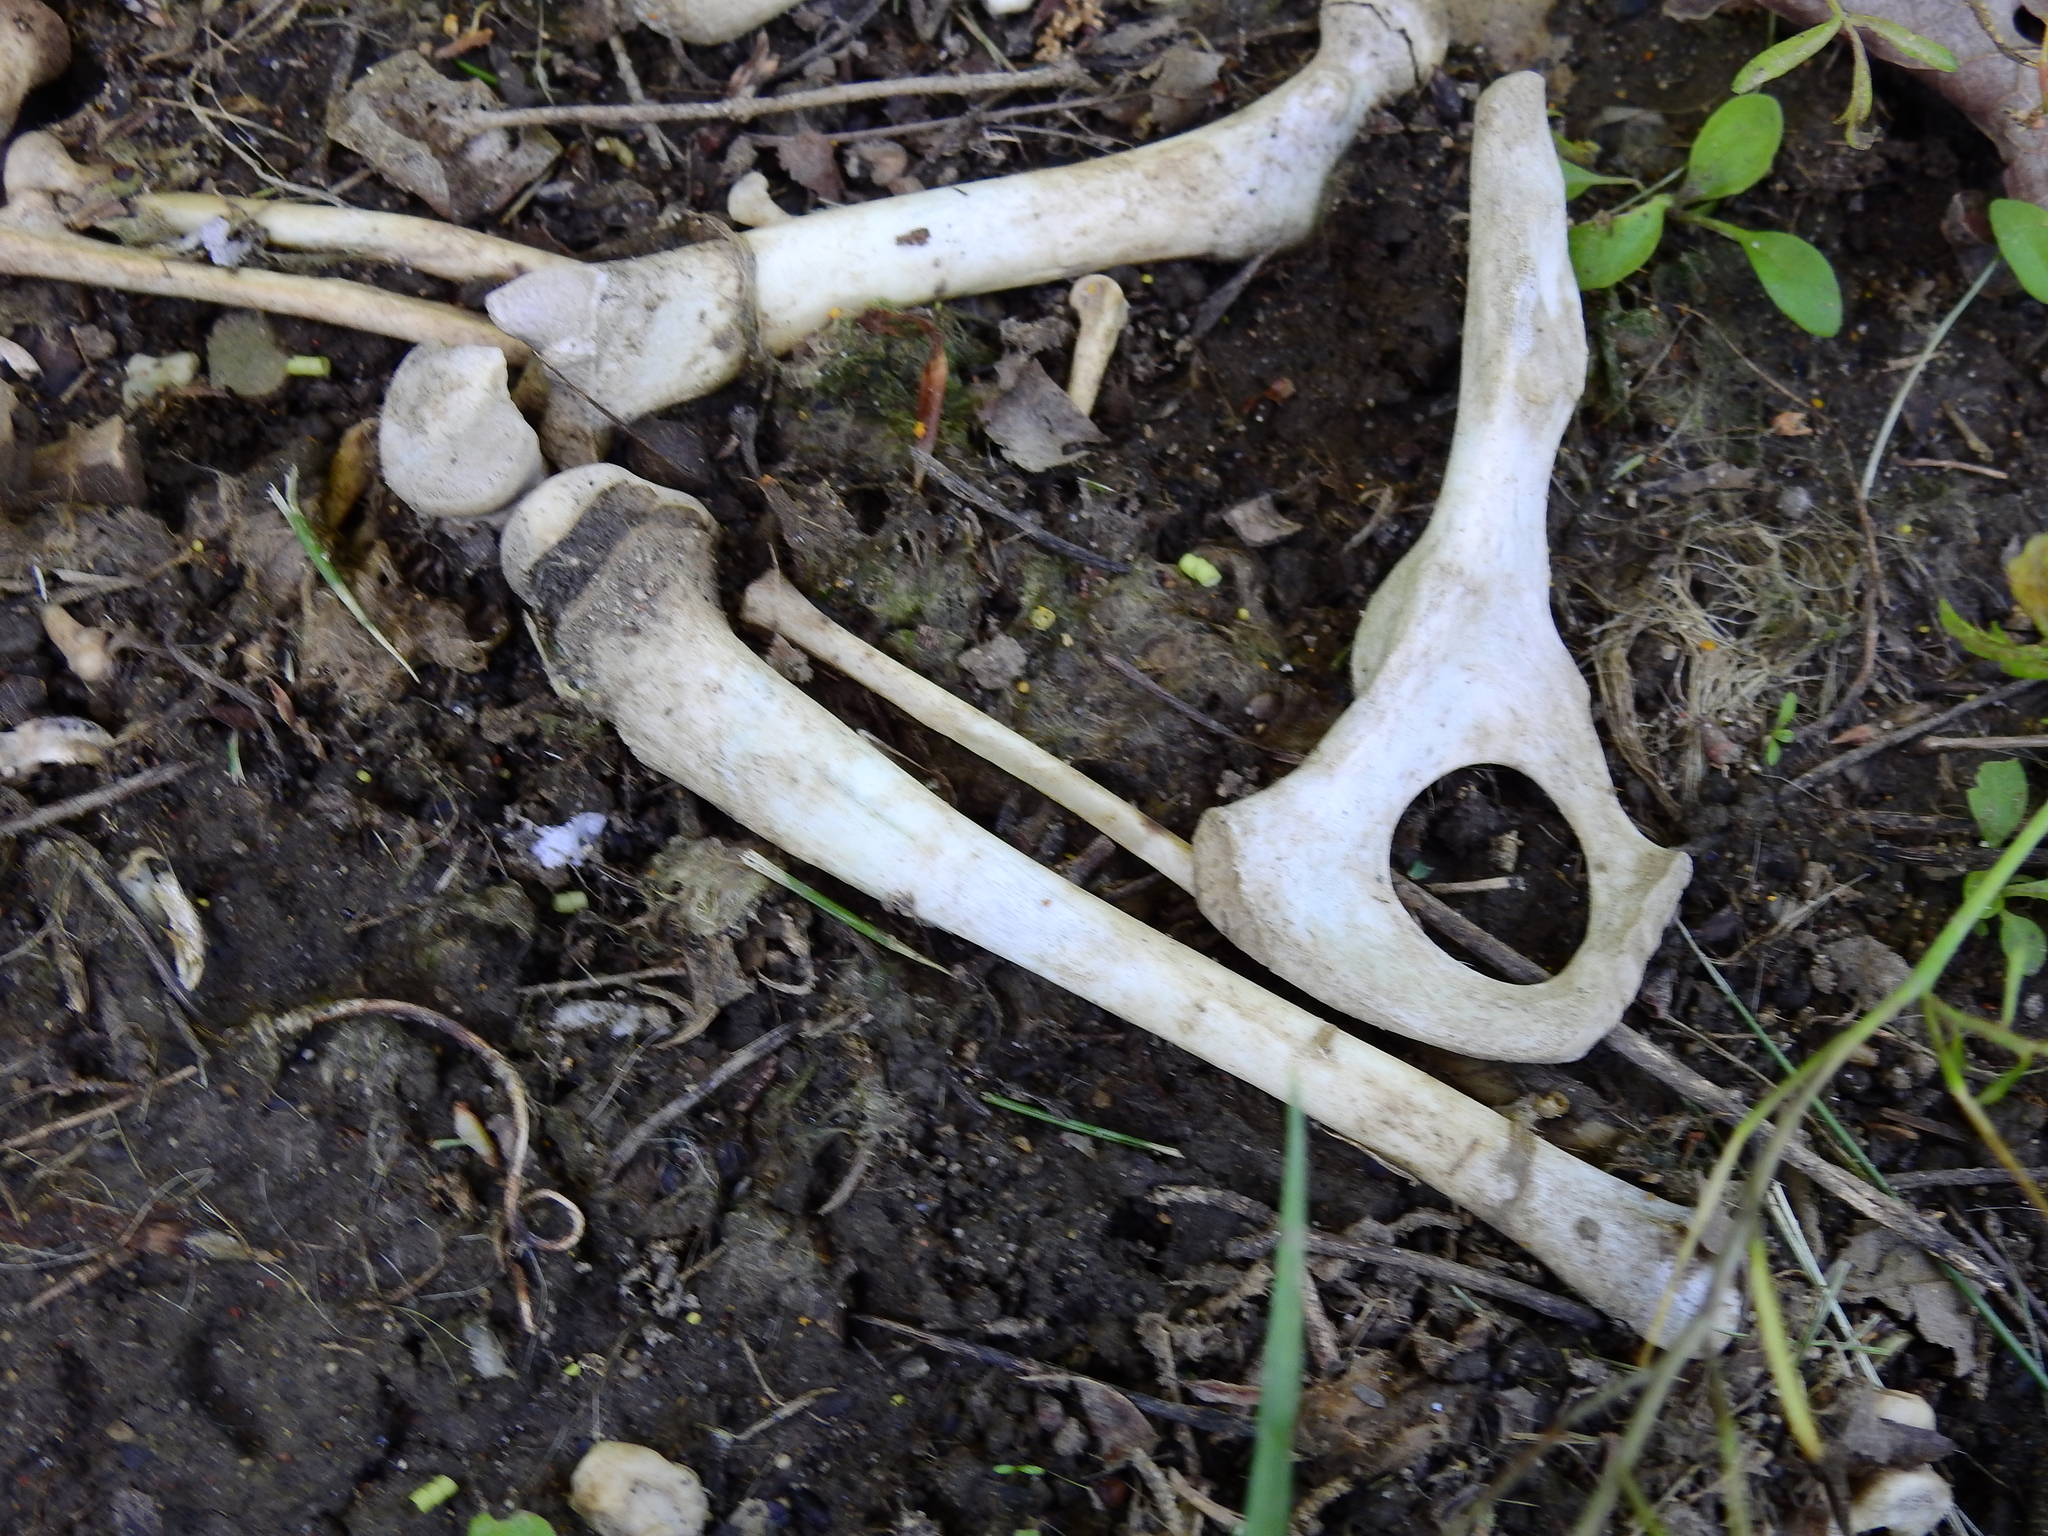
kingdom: Animalia
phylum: Chordata
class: Mammalia
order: Carnivora
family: Procyonidae
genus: Procyon
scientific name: Procyon lotor
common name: Raccoon
